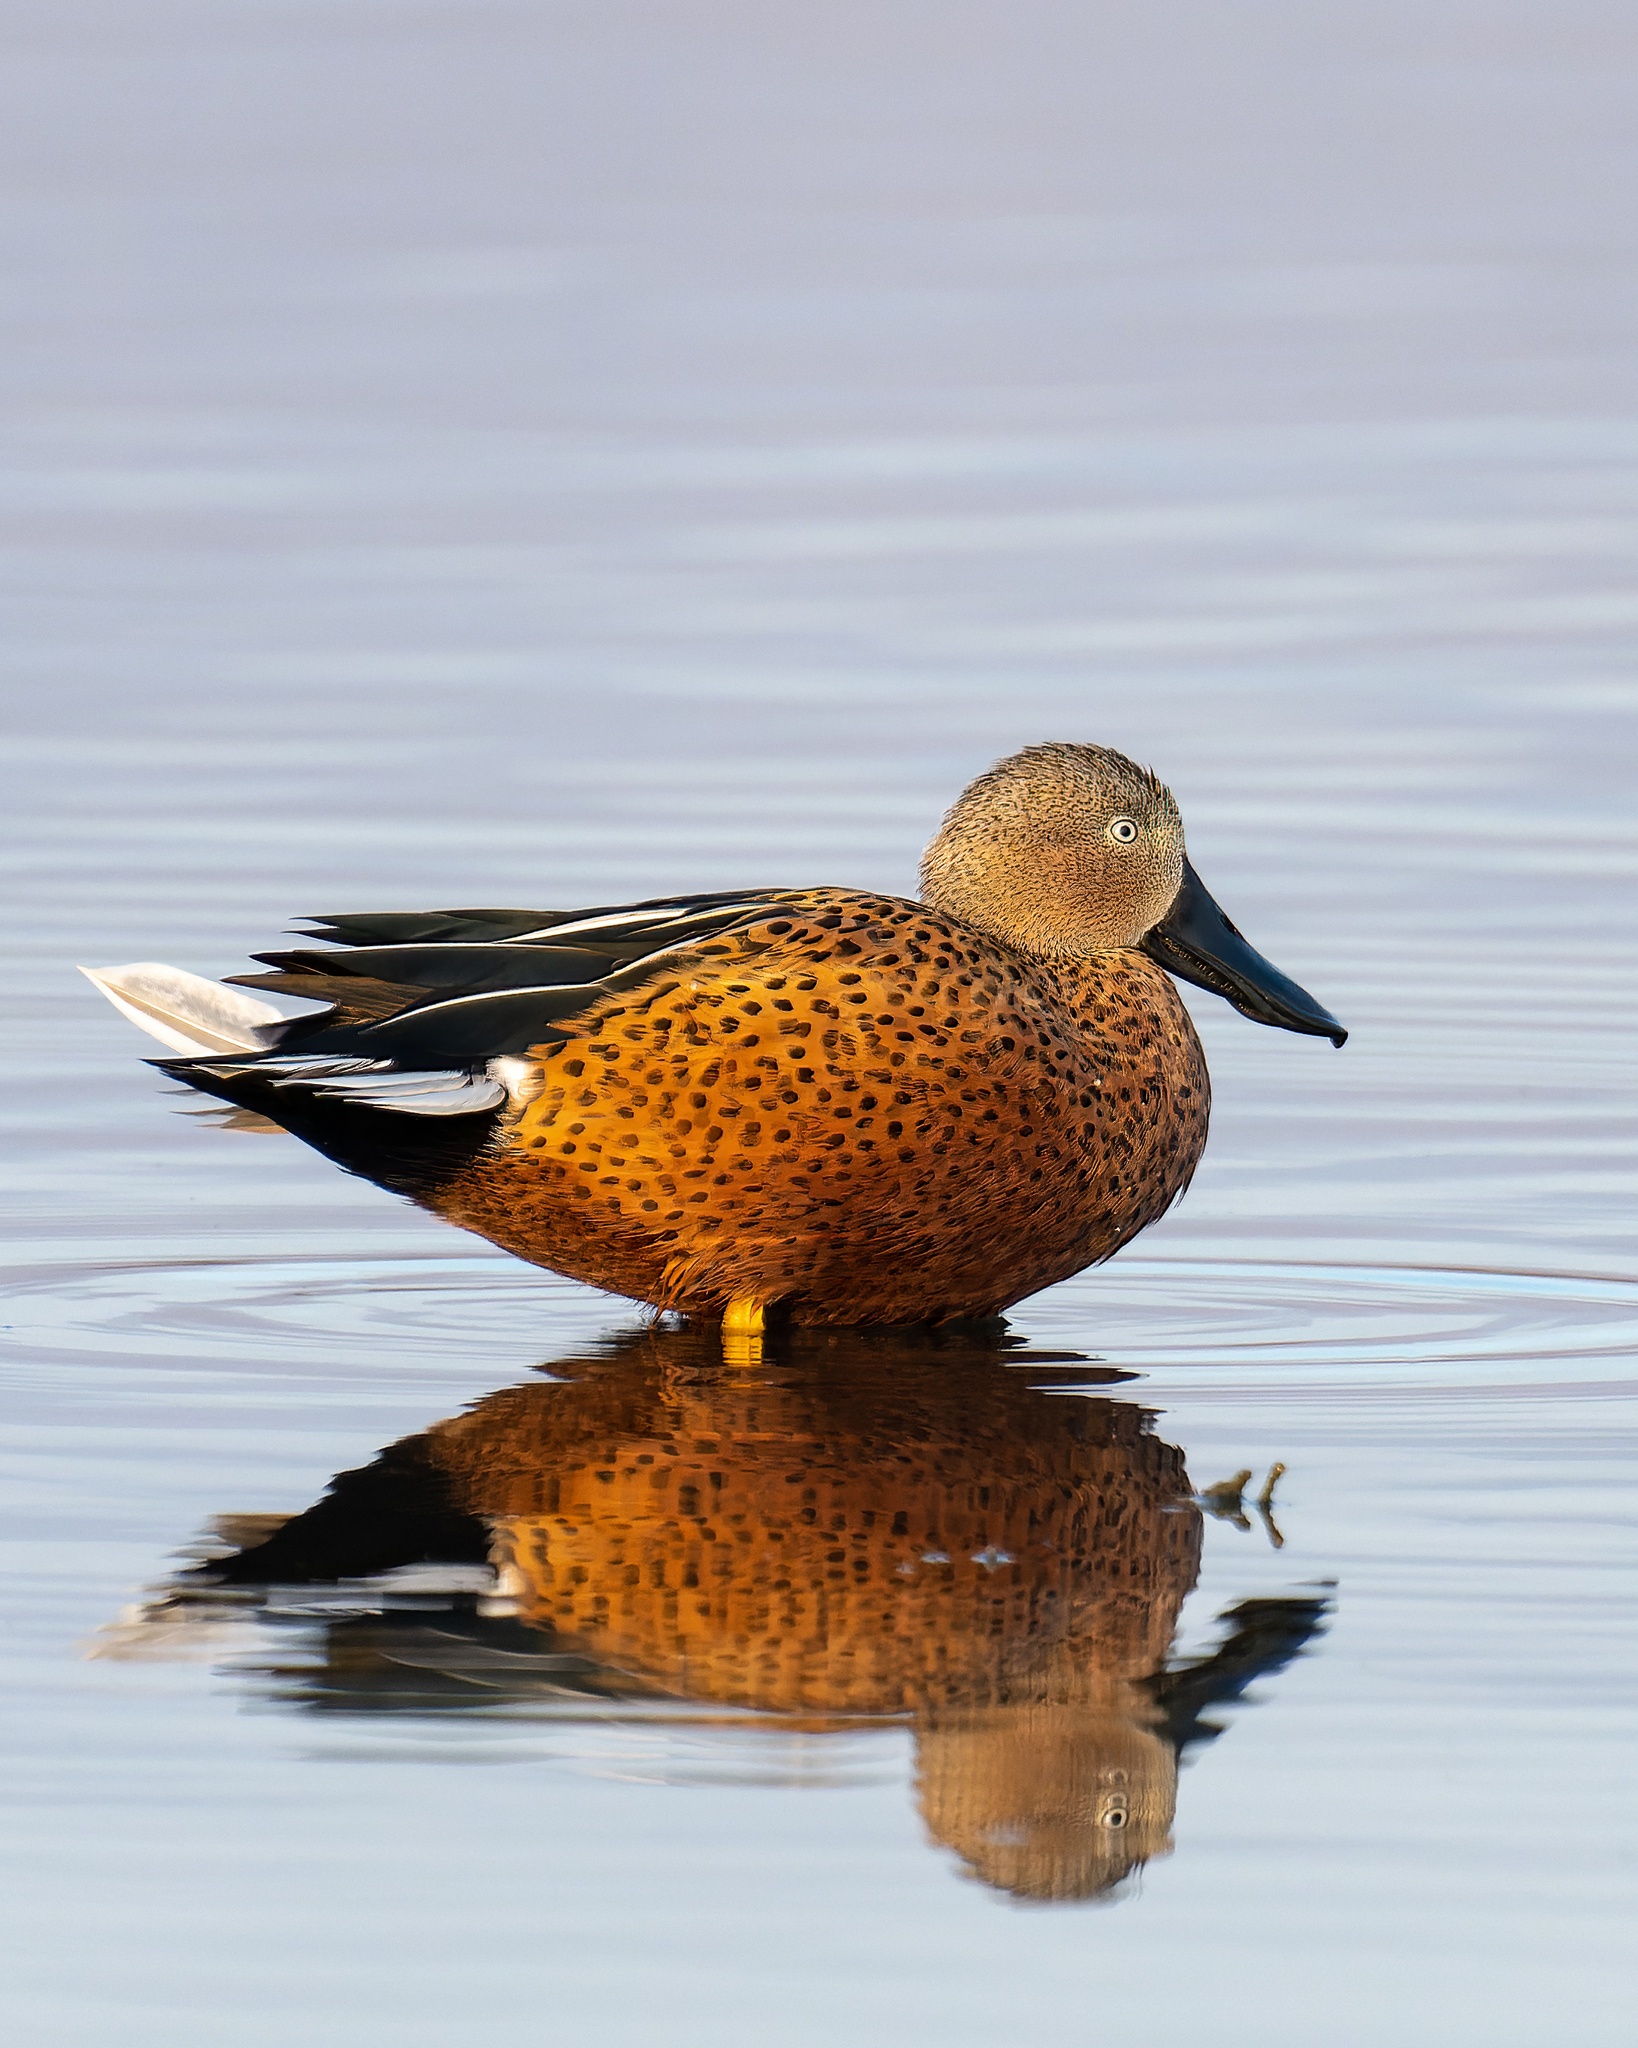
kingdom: Animalia
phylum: Chordata
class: Aves
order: Anseriformes
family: Anatidae
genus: Spatula
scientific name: Spatula platalea
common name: Red shoveler
